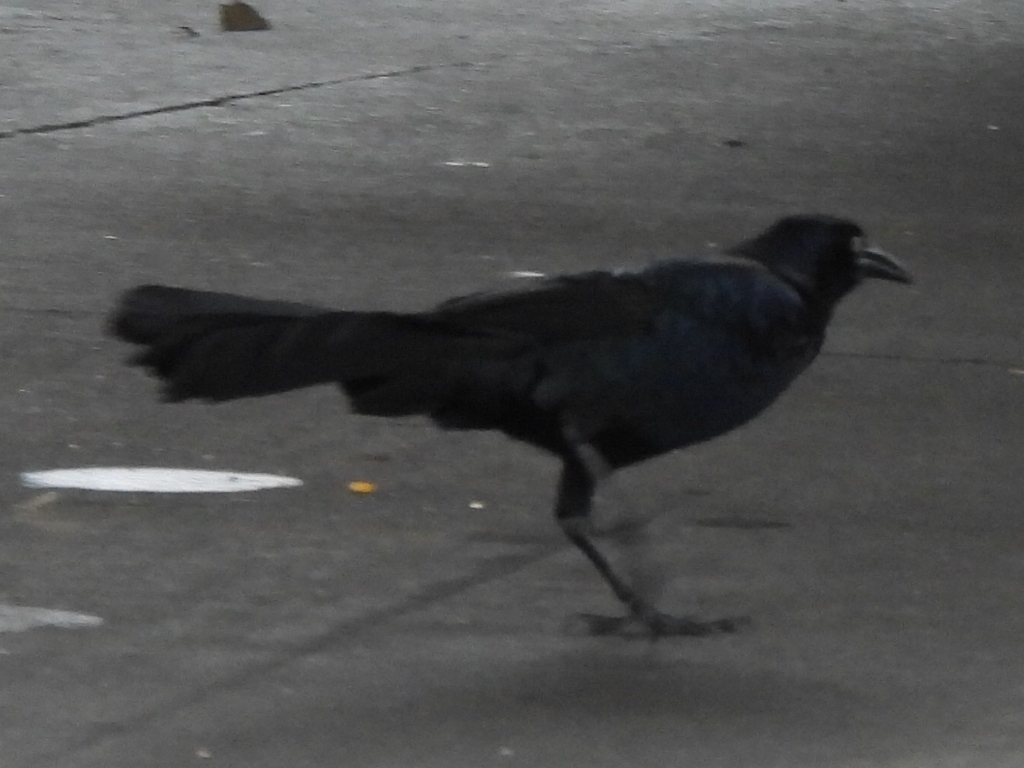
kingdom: Animalia
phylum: Chordata
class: Aves
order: Passeriformes
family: Icteridae
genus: Quiscalus
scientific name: Quiscalus mexicanus
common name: Great-tailed grackle
